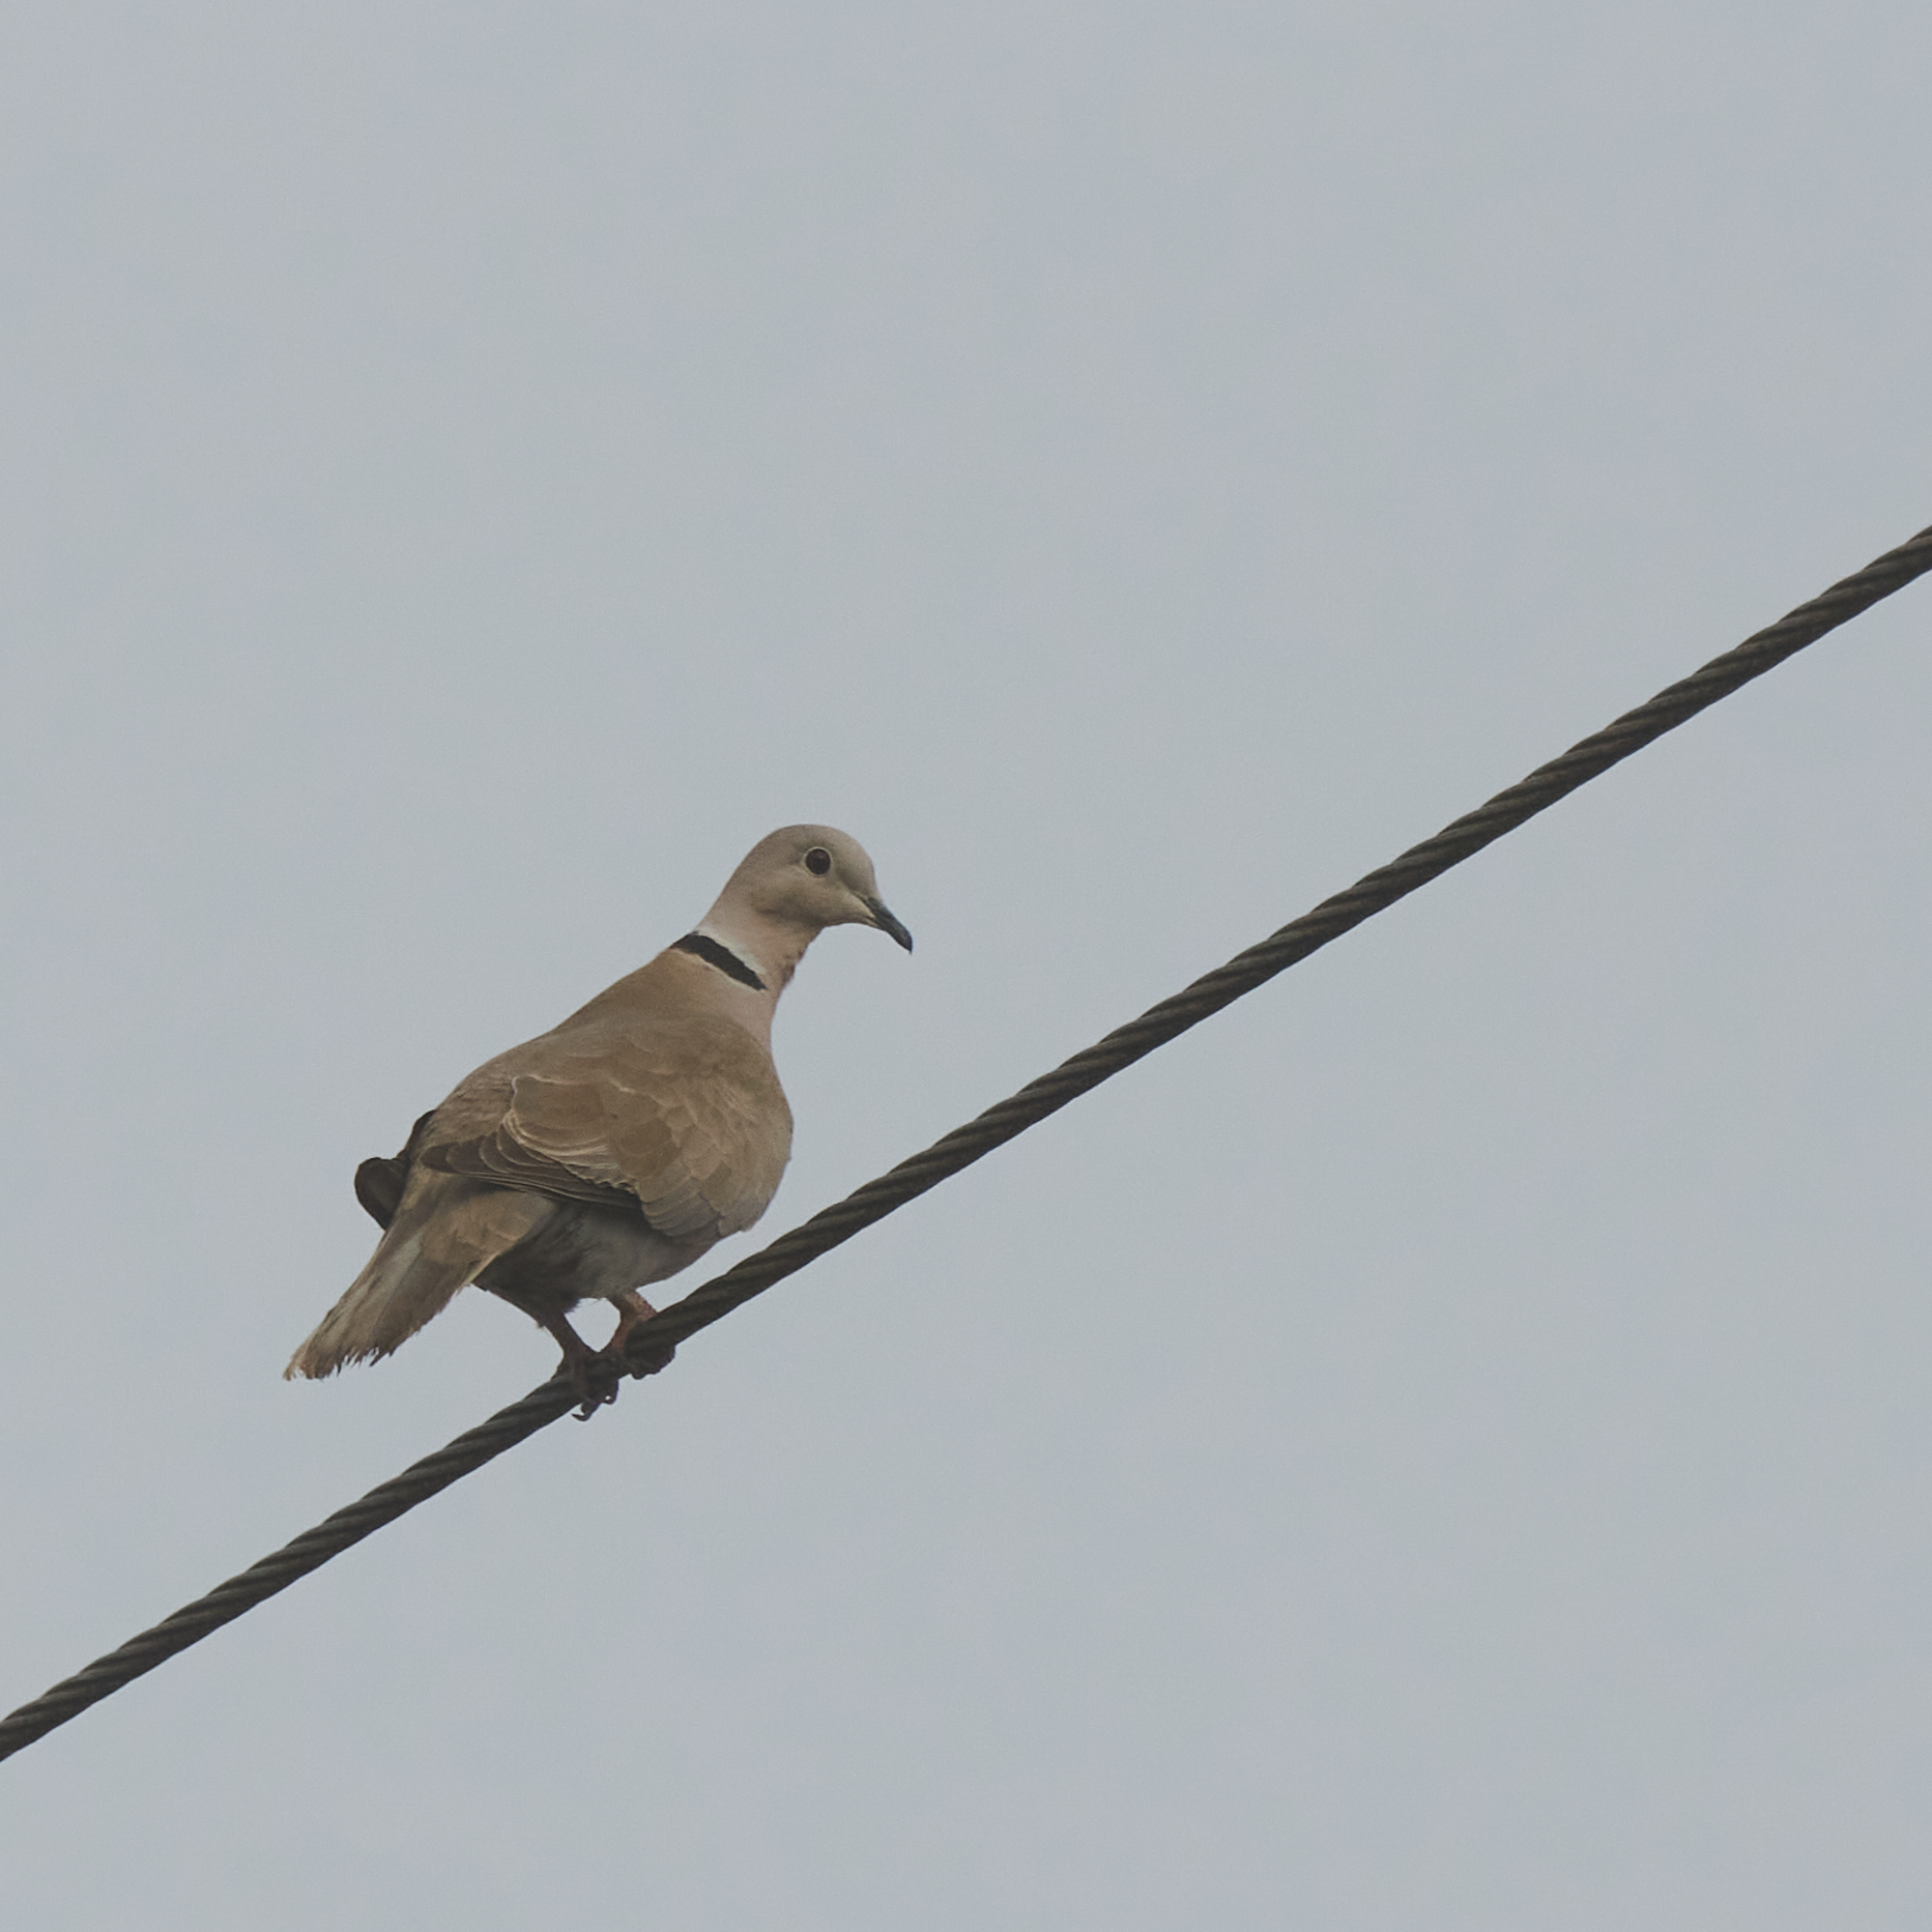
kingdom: Animalia
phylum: Chordata
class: Aves
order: Columbiformes
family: Columbidae
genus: Streptopelia
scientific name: Streptopelia decaocto
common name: Eurasian collared dove
